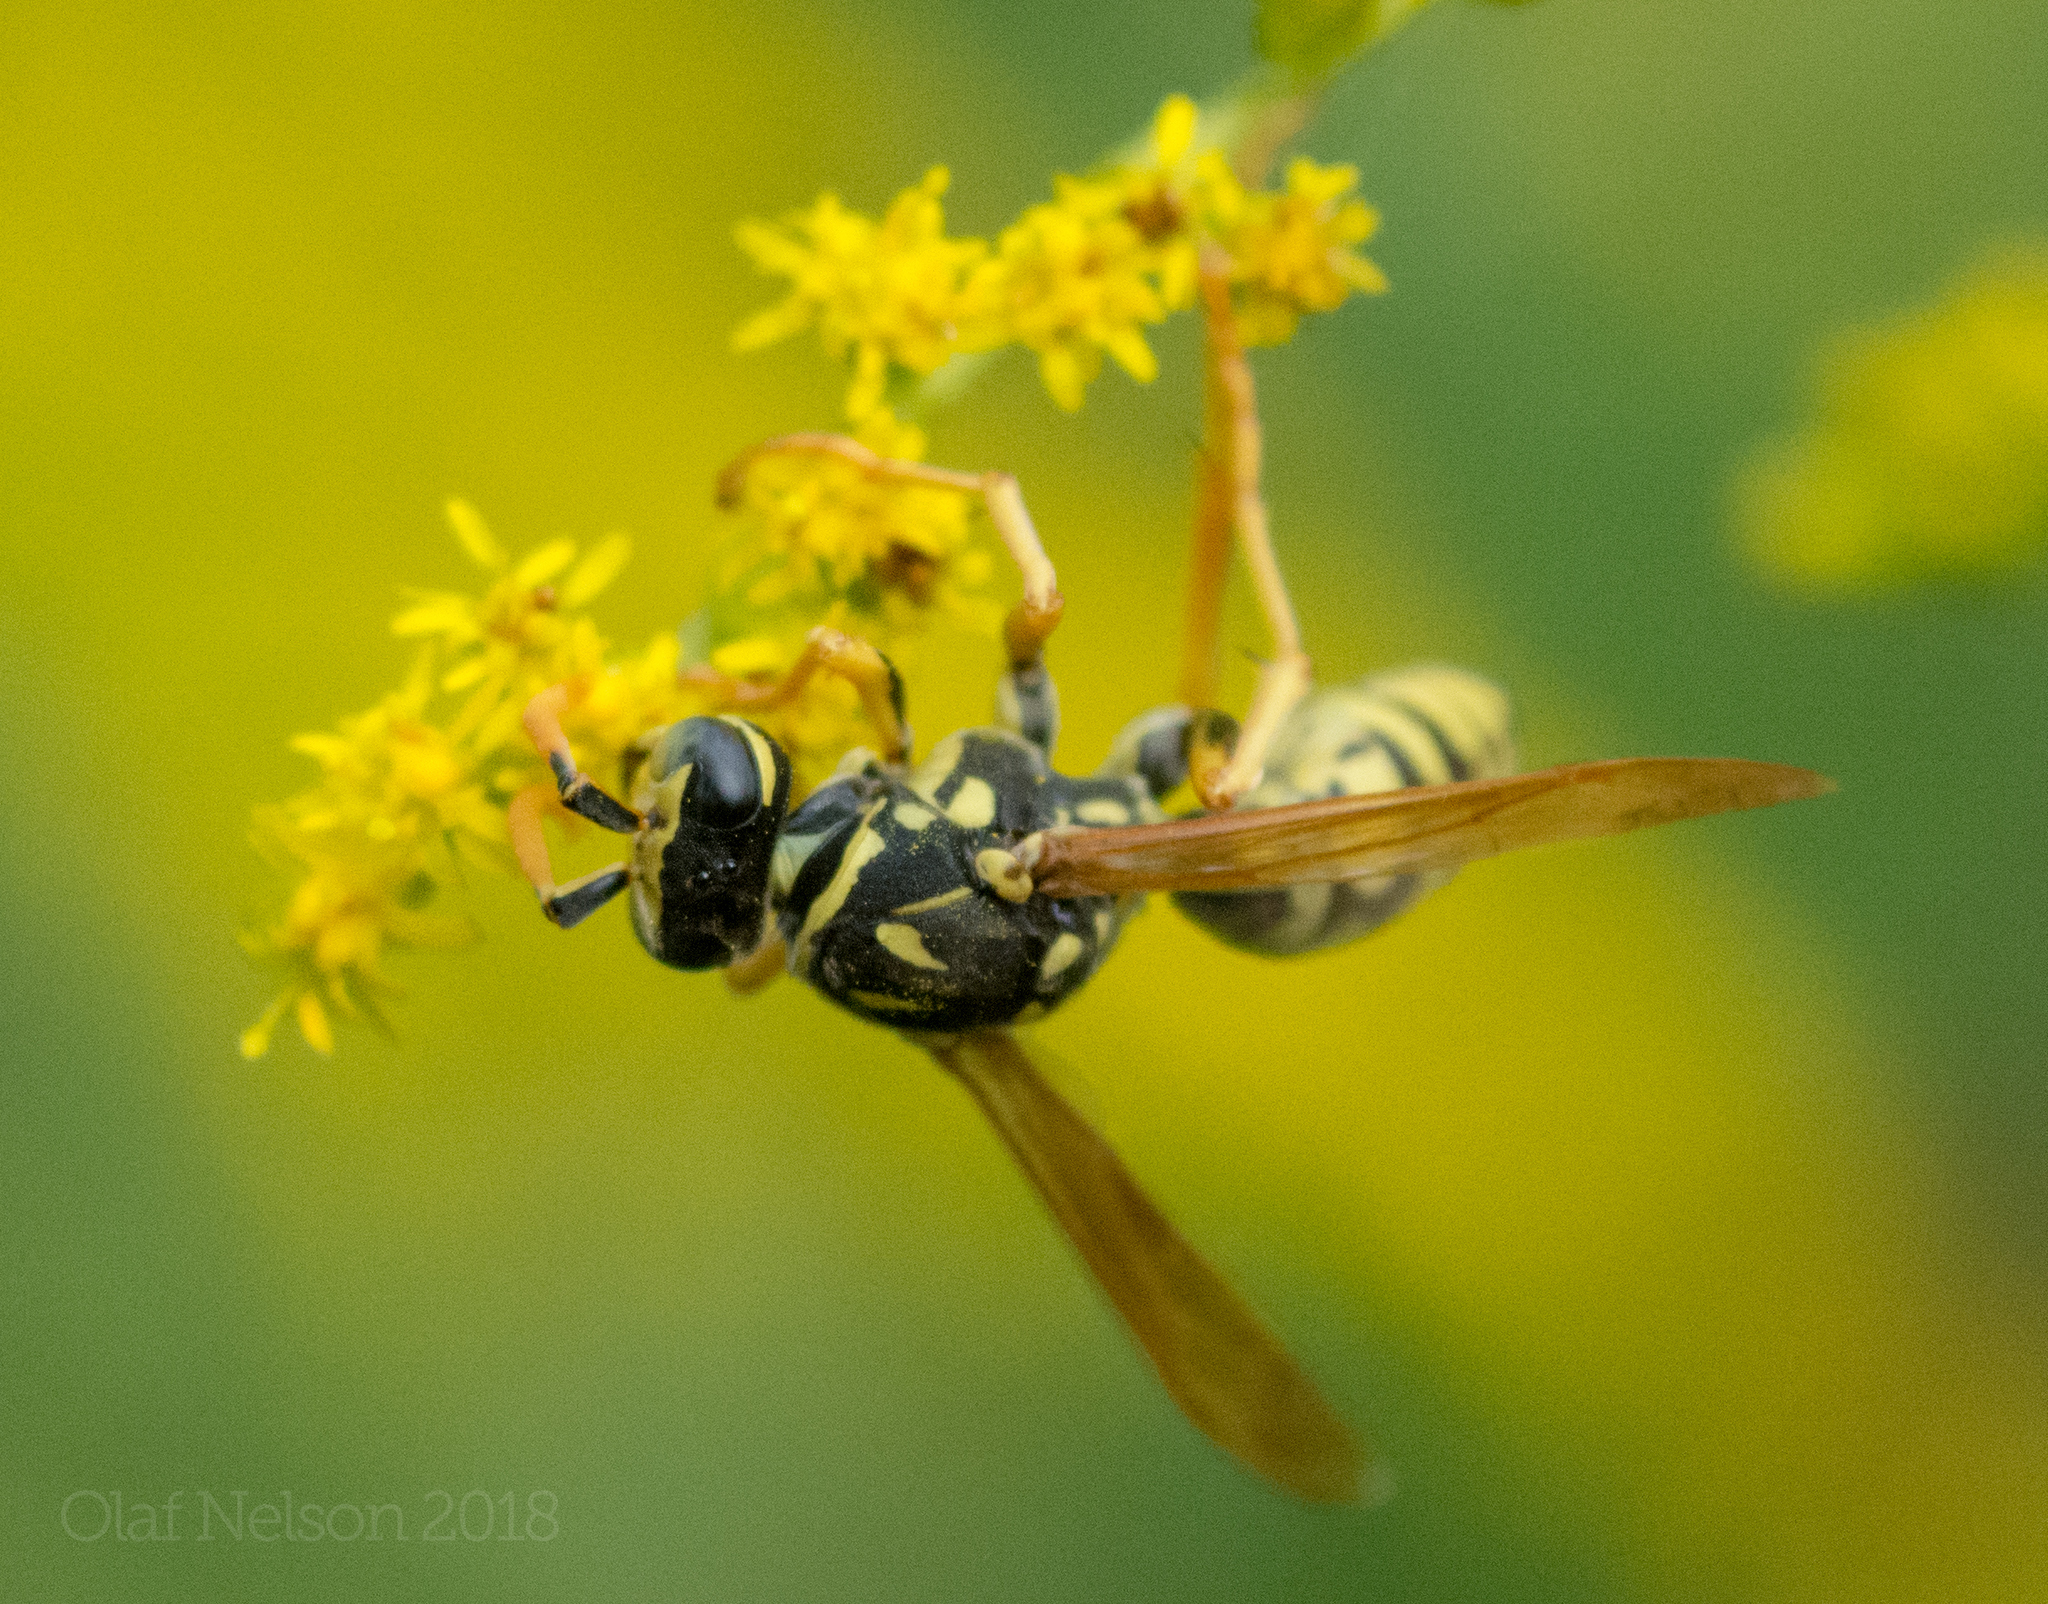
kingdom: Animalia
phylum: Arthropoda
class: Insecta
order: Hymenoptera
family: Eumenidae
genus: Polistes
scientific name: Polistes dominula
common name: Paper wasp
